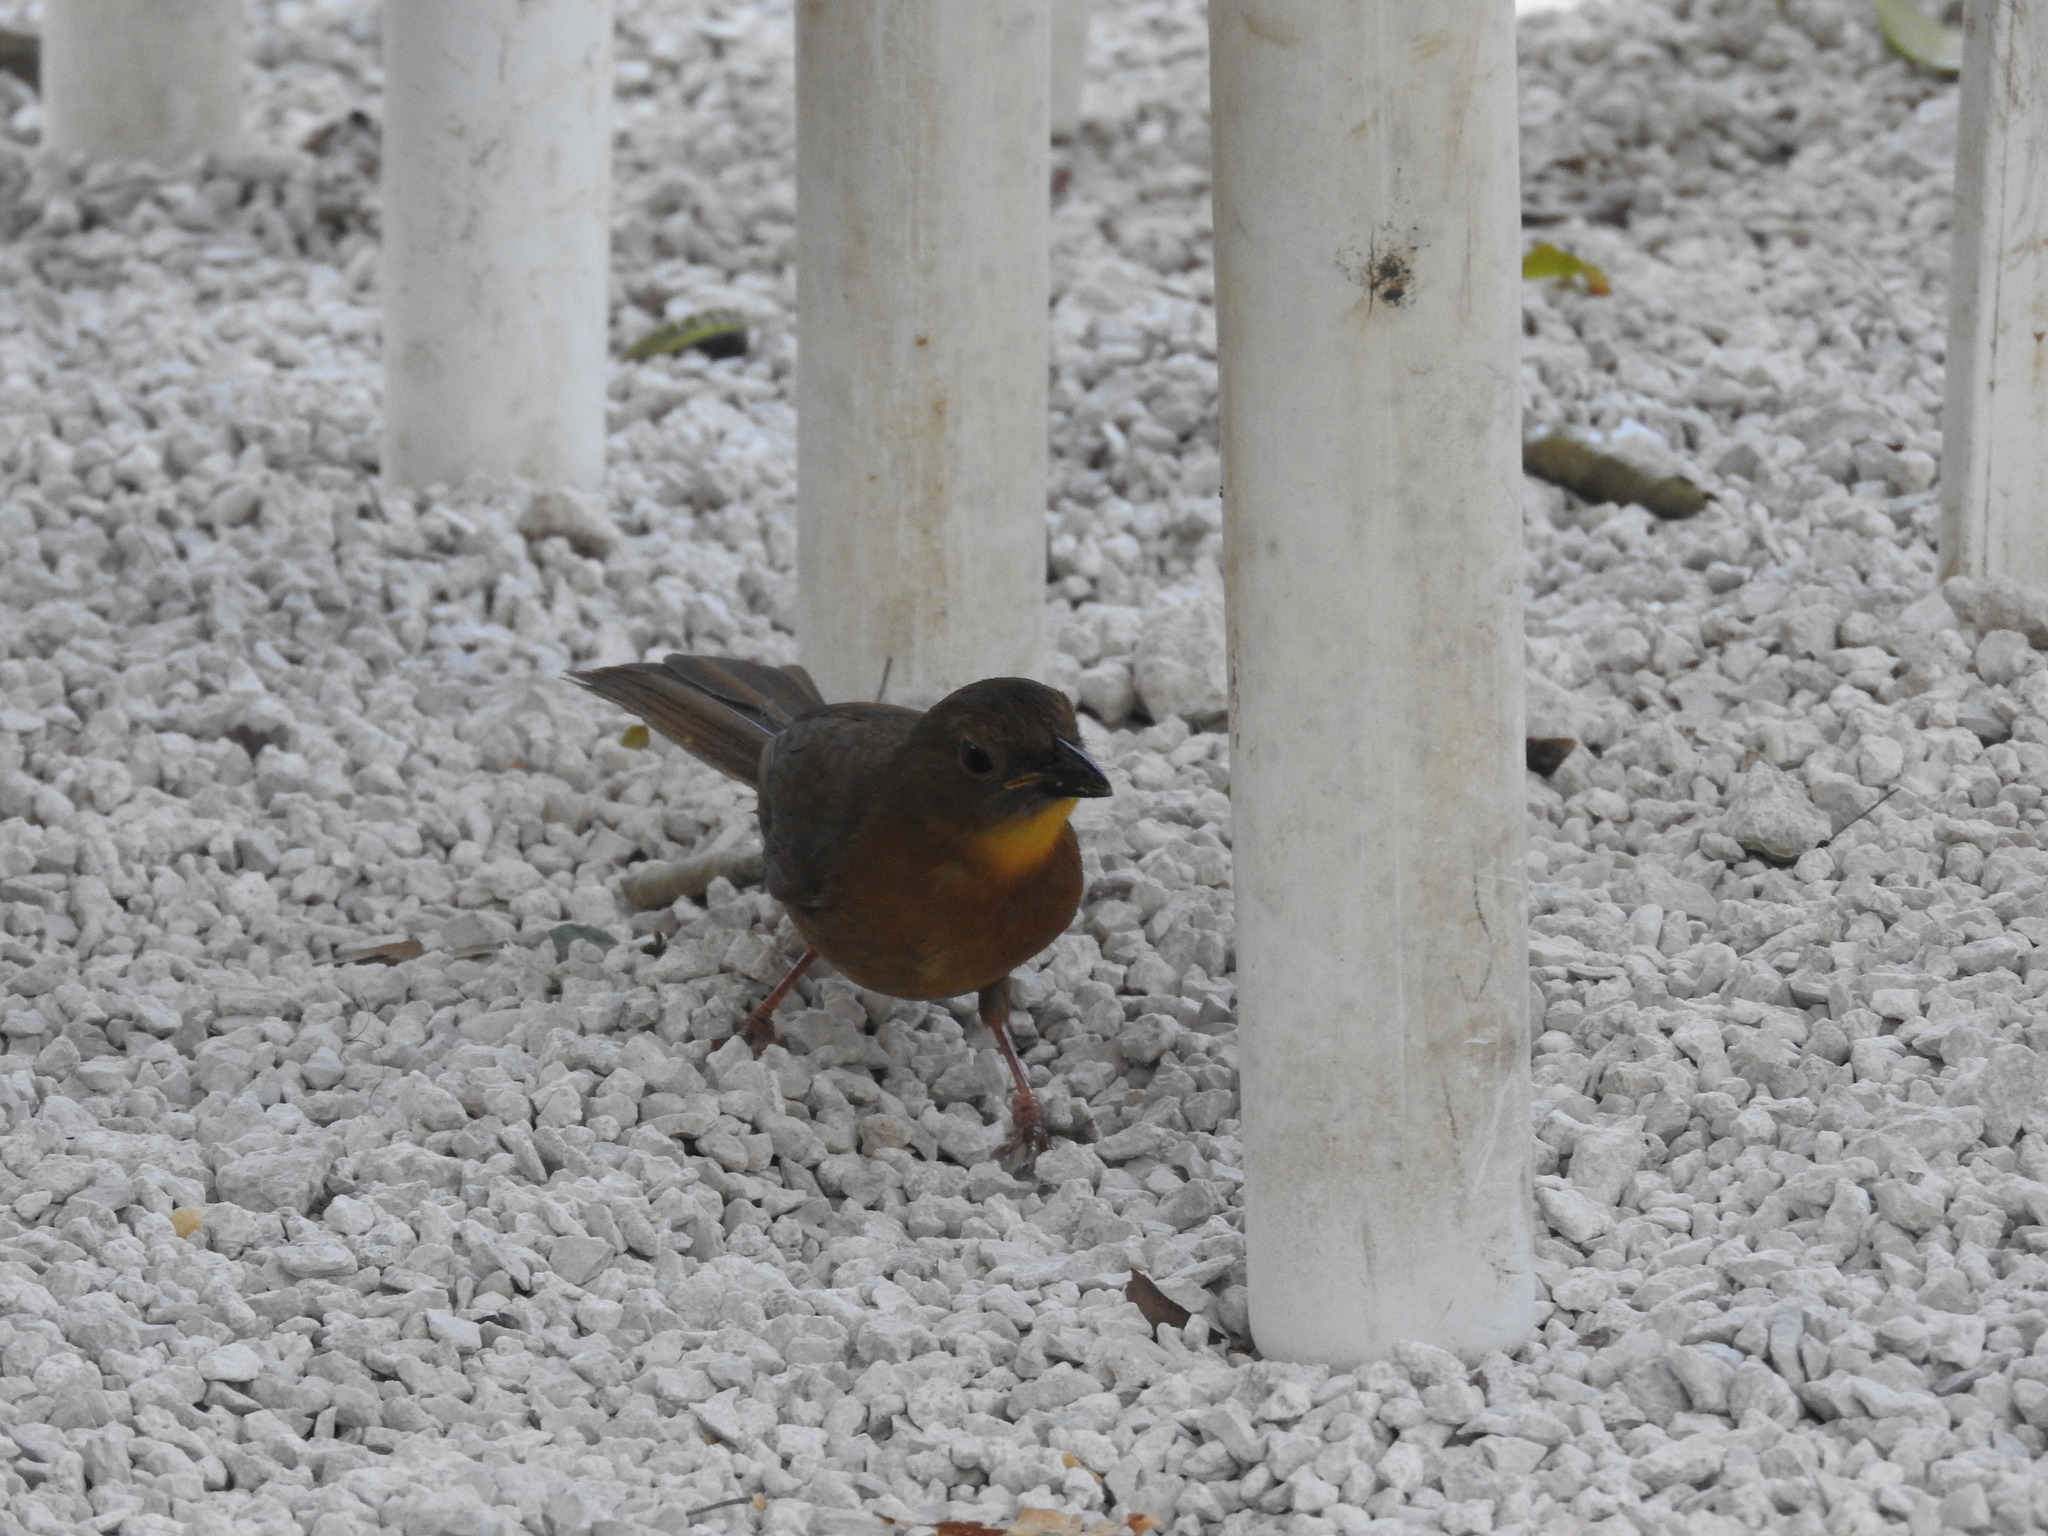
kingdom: Animalia
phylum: Chordata
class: Aves
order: Passeriformes
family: Cardinalidae
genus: Habia
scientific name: Habia fuscicauda
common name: Red-throated ant-tanager
